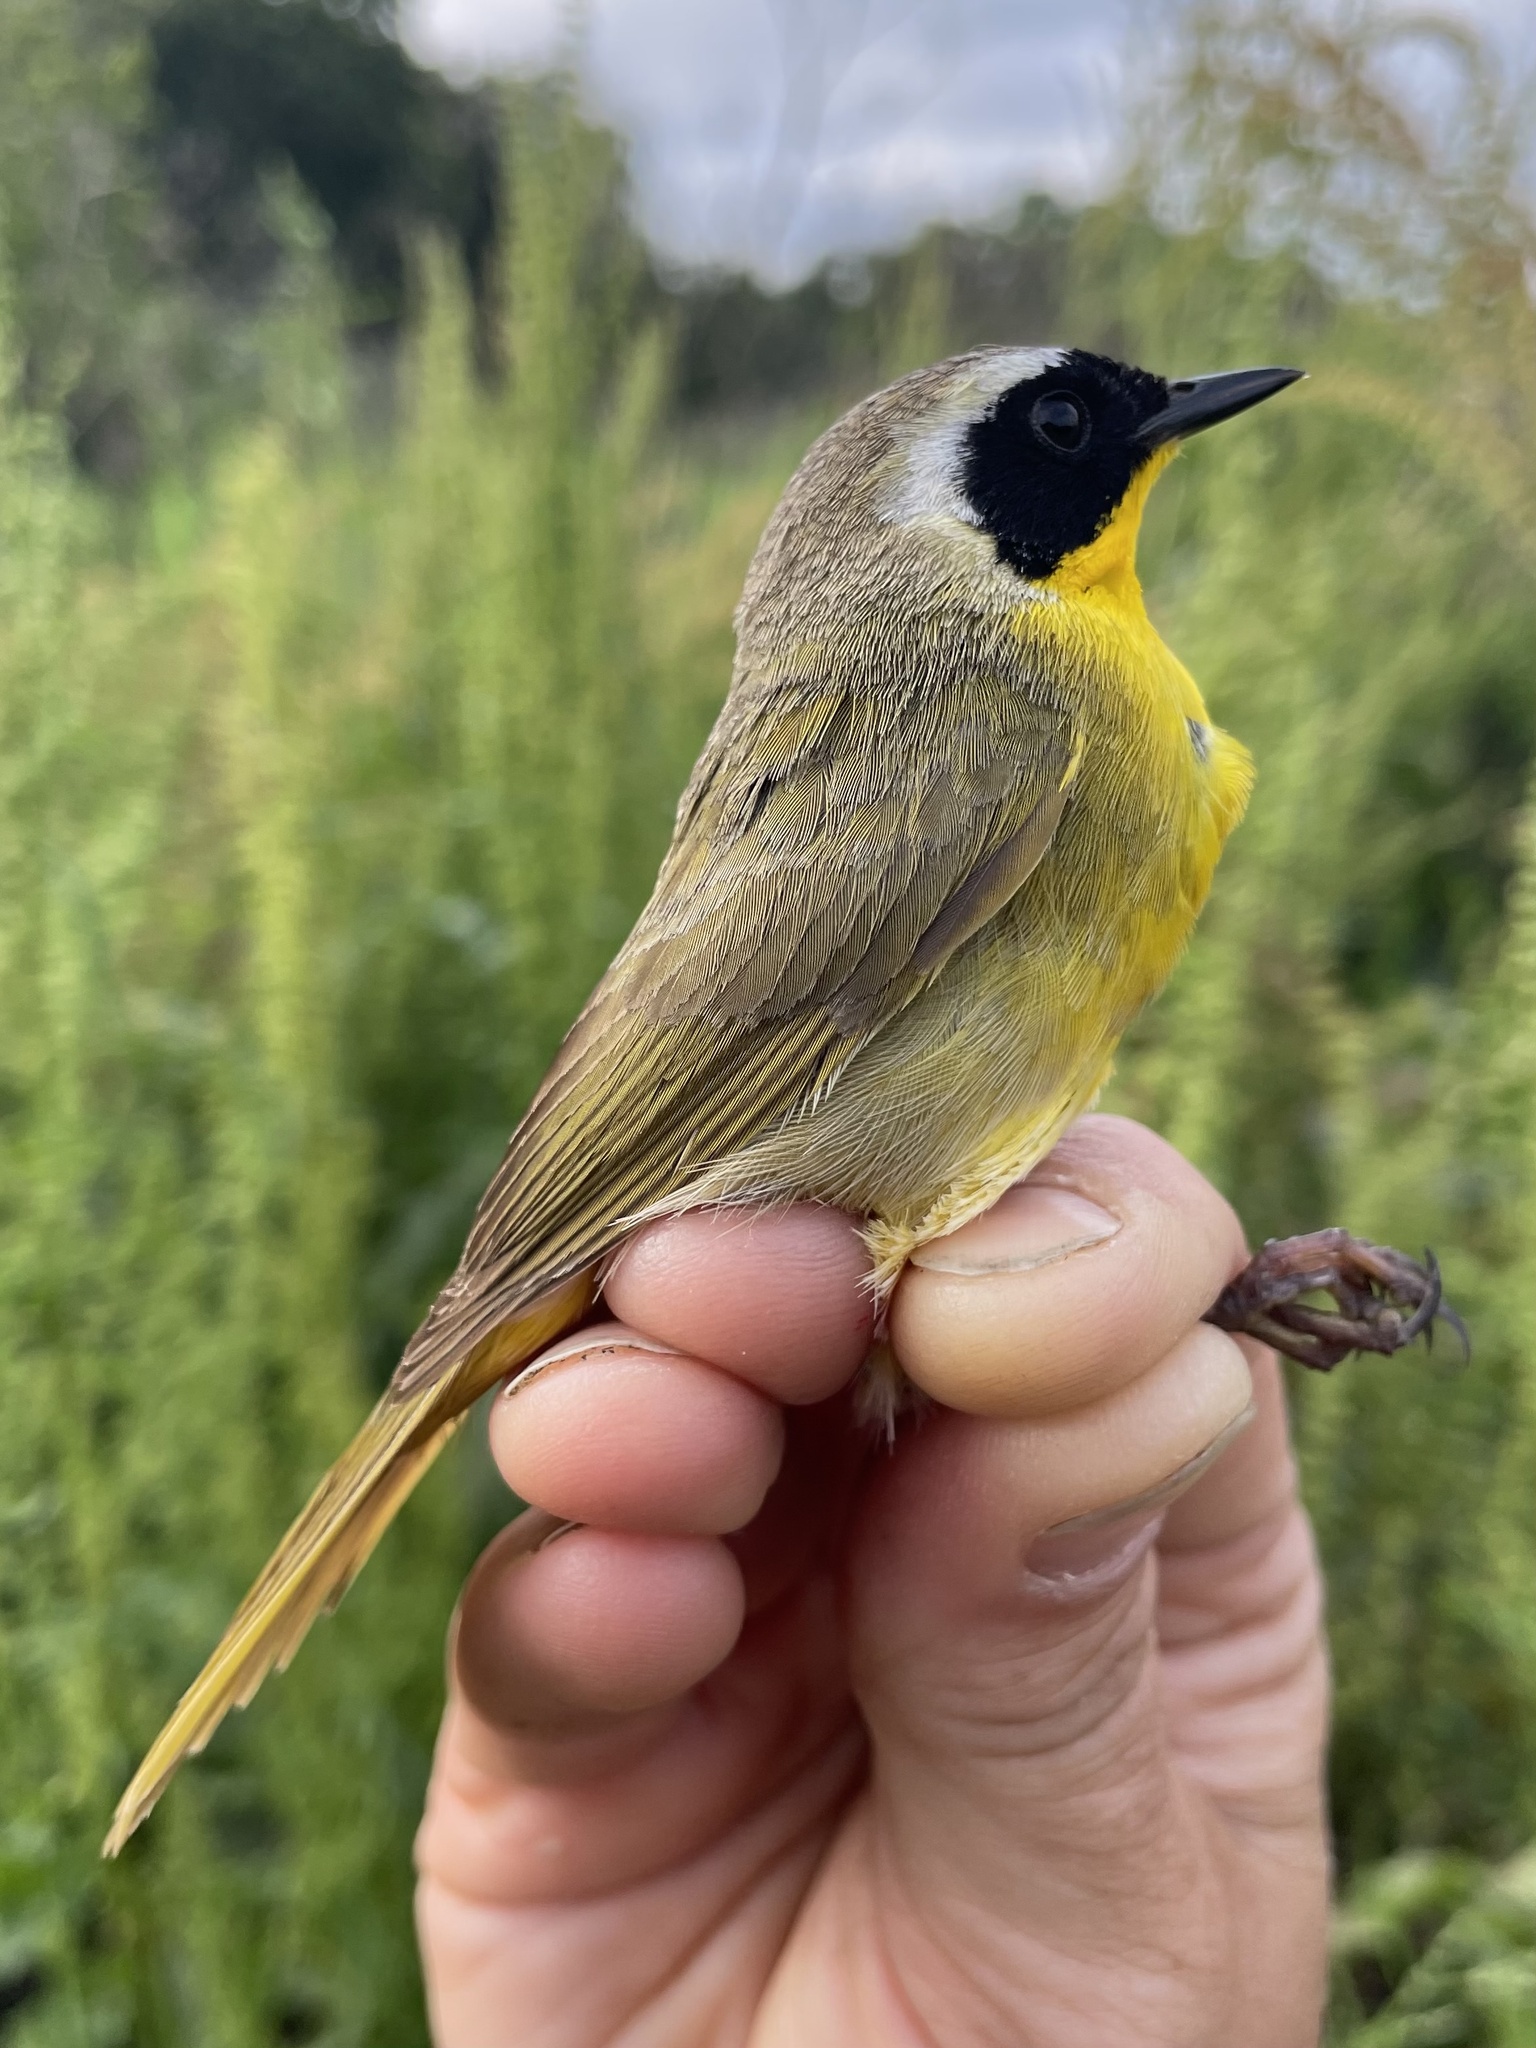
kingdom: Animalia
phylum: Chordata
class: Aves
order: Passeriformes
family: Parulidae
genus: Geothlypis
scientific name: Geothlypis trichas
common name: Common yellowthroat
